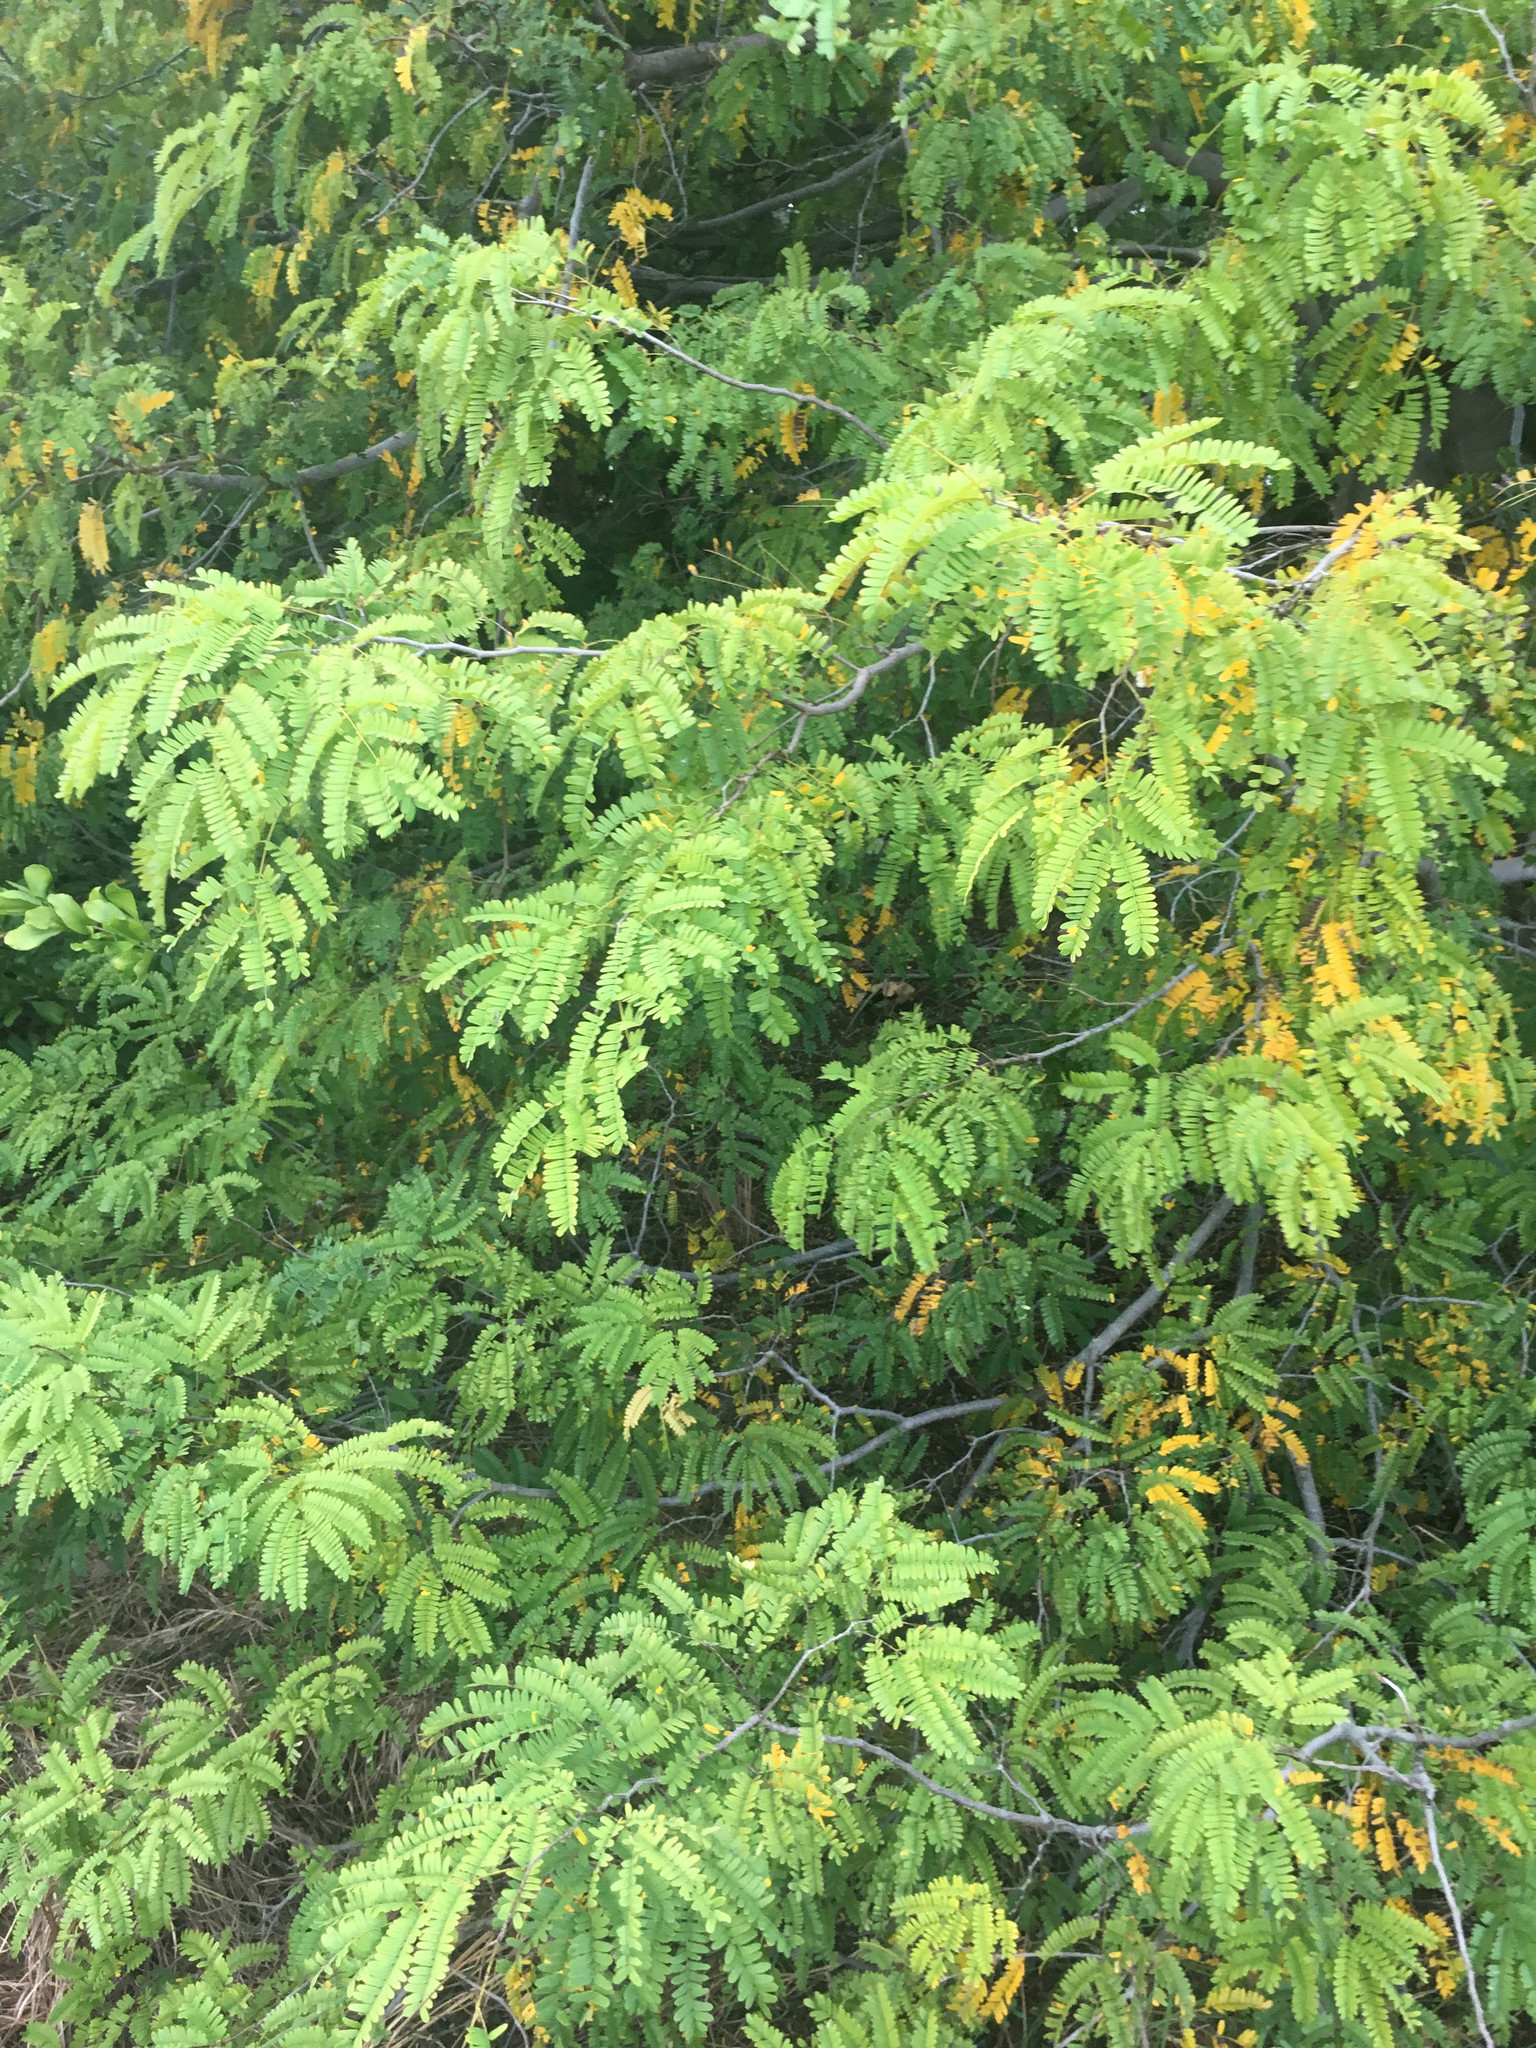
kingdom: Plantae
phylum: Tracheophyta
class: Magnoliopsida
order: Fabales
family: Fabaceae
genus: Lysiloma
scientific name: Lysiloma latisiliquum
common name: Wild tamarind
